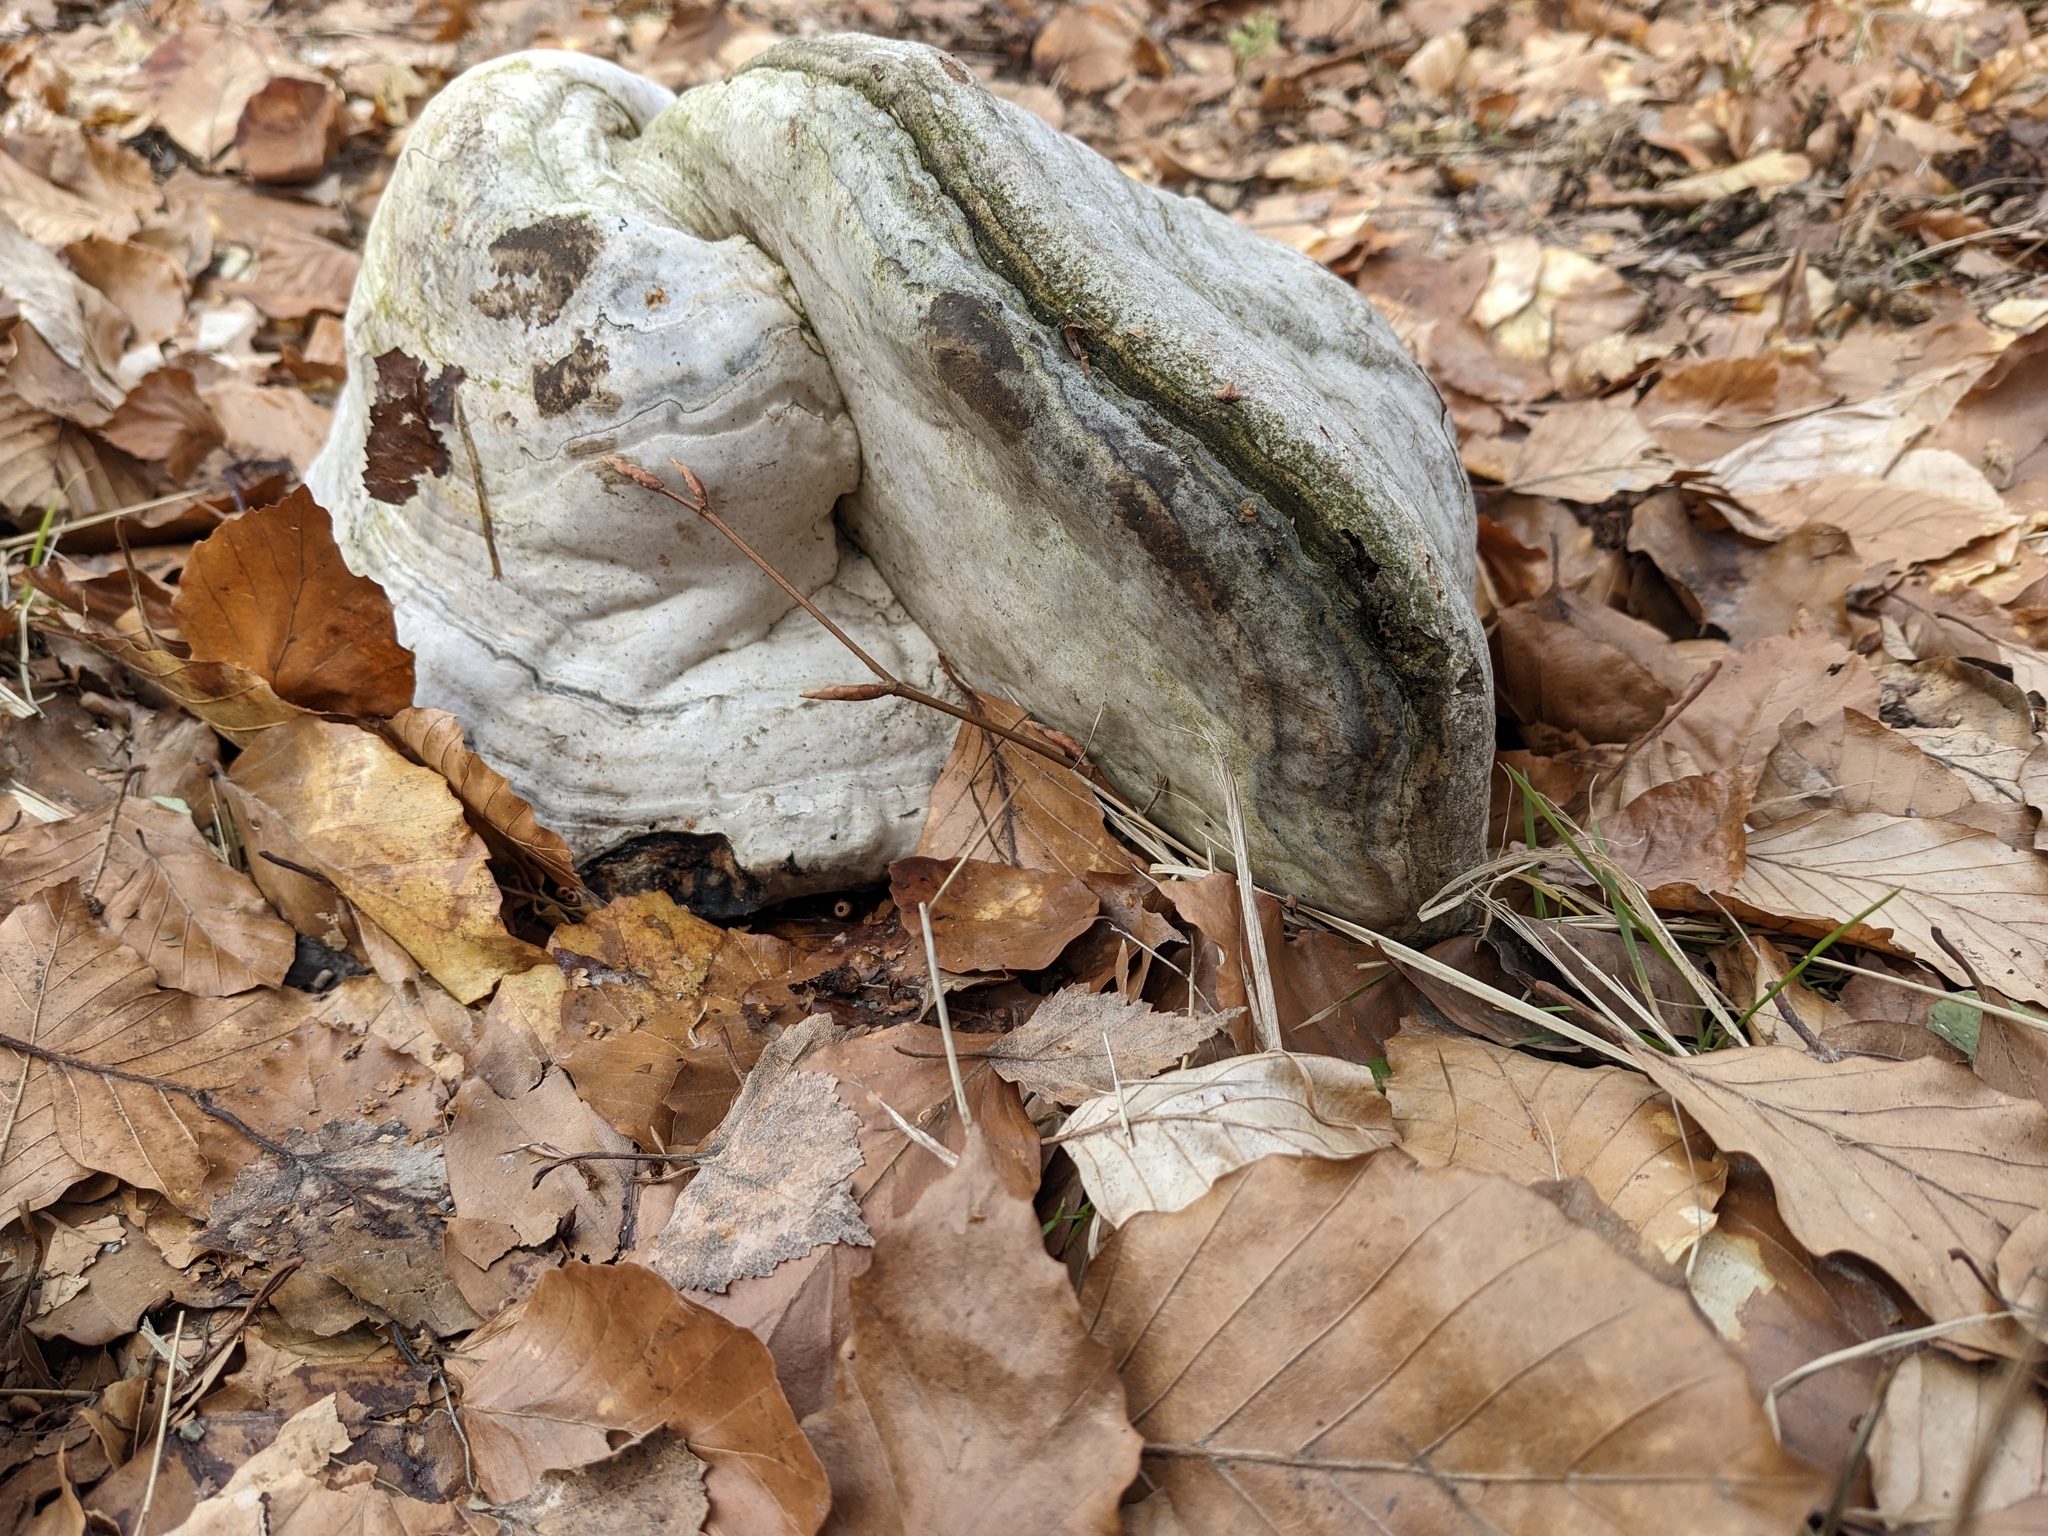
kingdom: Fungi
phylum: Basidiomycota
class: Agaricomycetes
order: Polyporales
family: Polyporaceae
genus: Fomes
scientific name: Fomes fomentarius
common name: Hoof fungus
